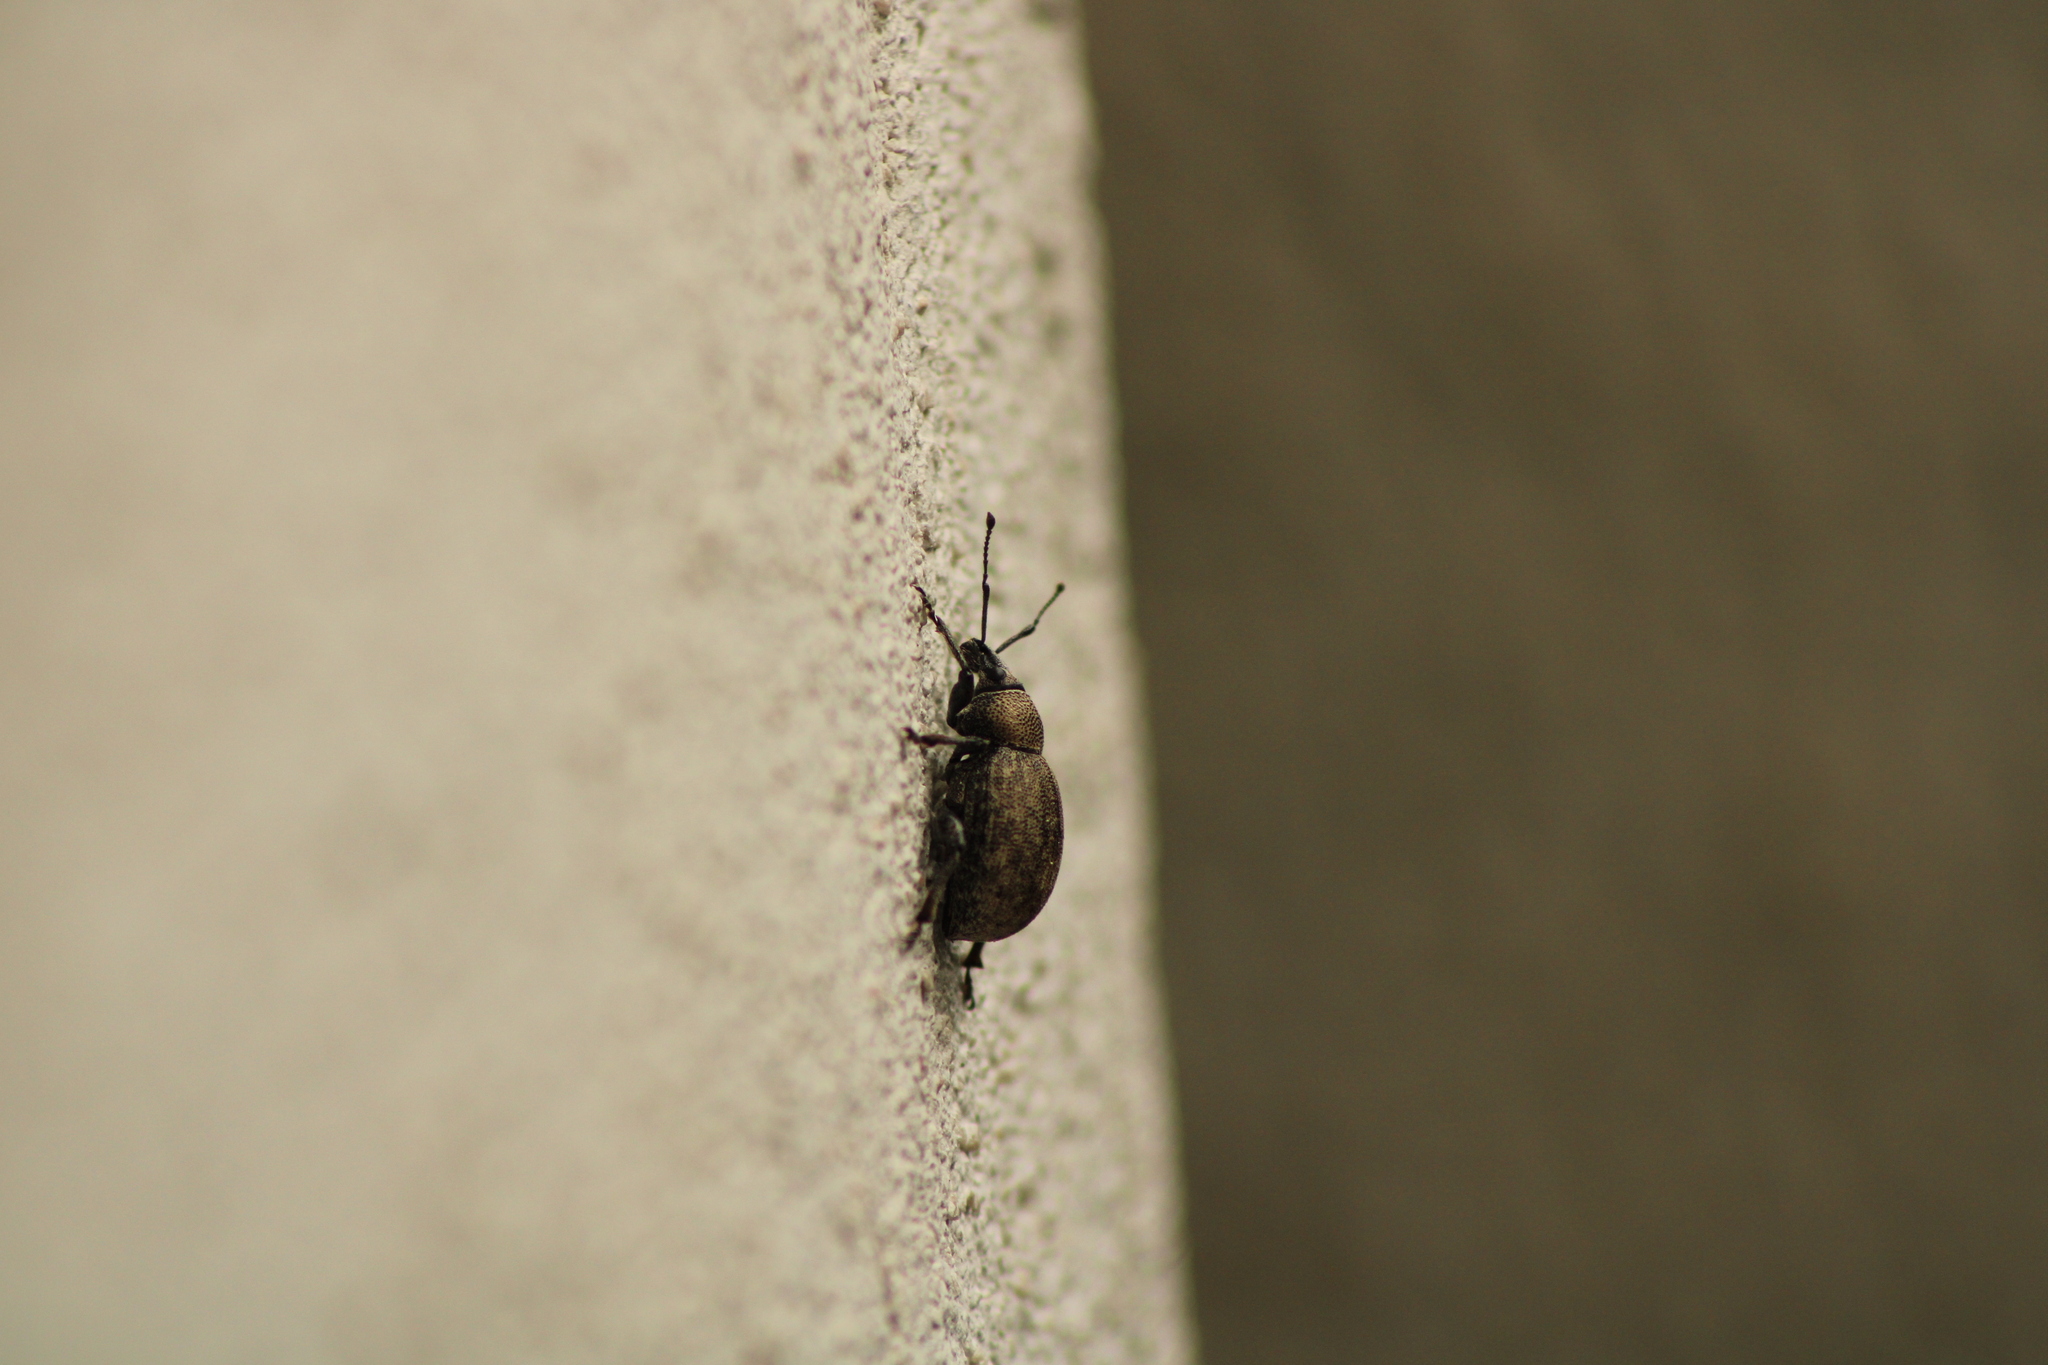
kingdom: Animalia
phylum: Arthropoda
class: Insecta
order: Coleoptera
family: Curculionidae
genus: Otiorhynchus
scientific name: Otiorhynchus ligustici
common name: Weevil
